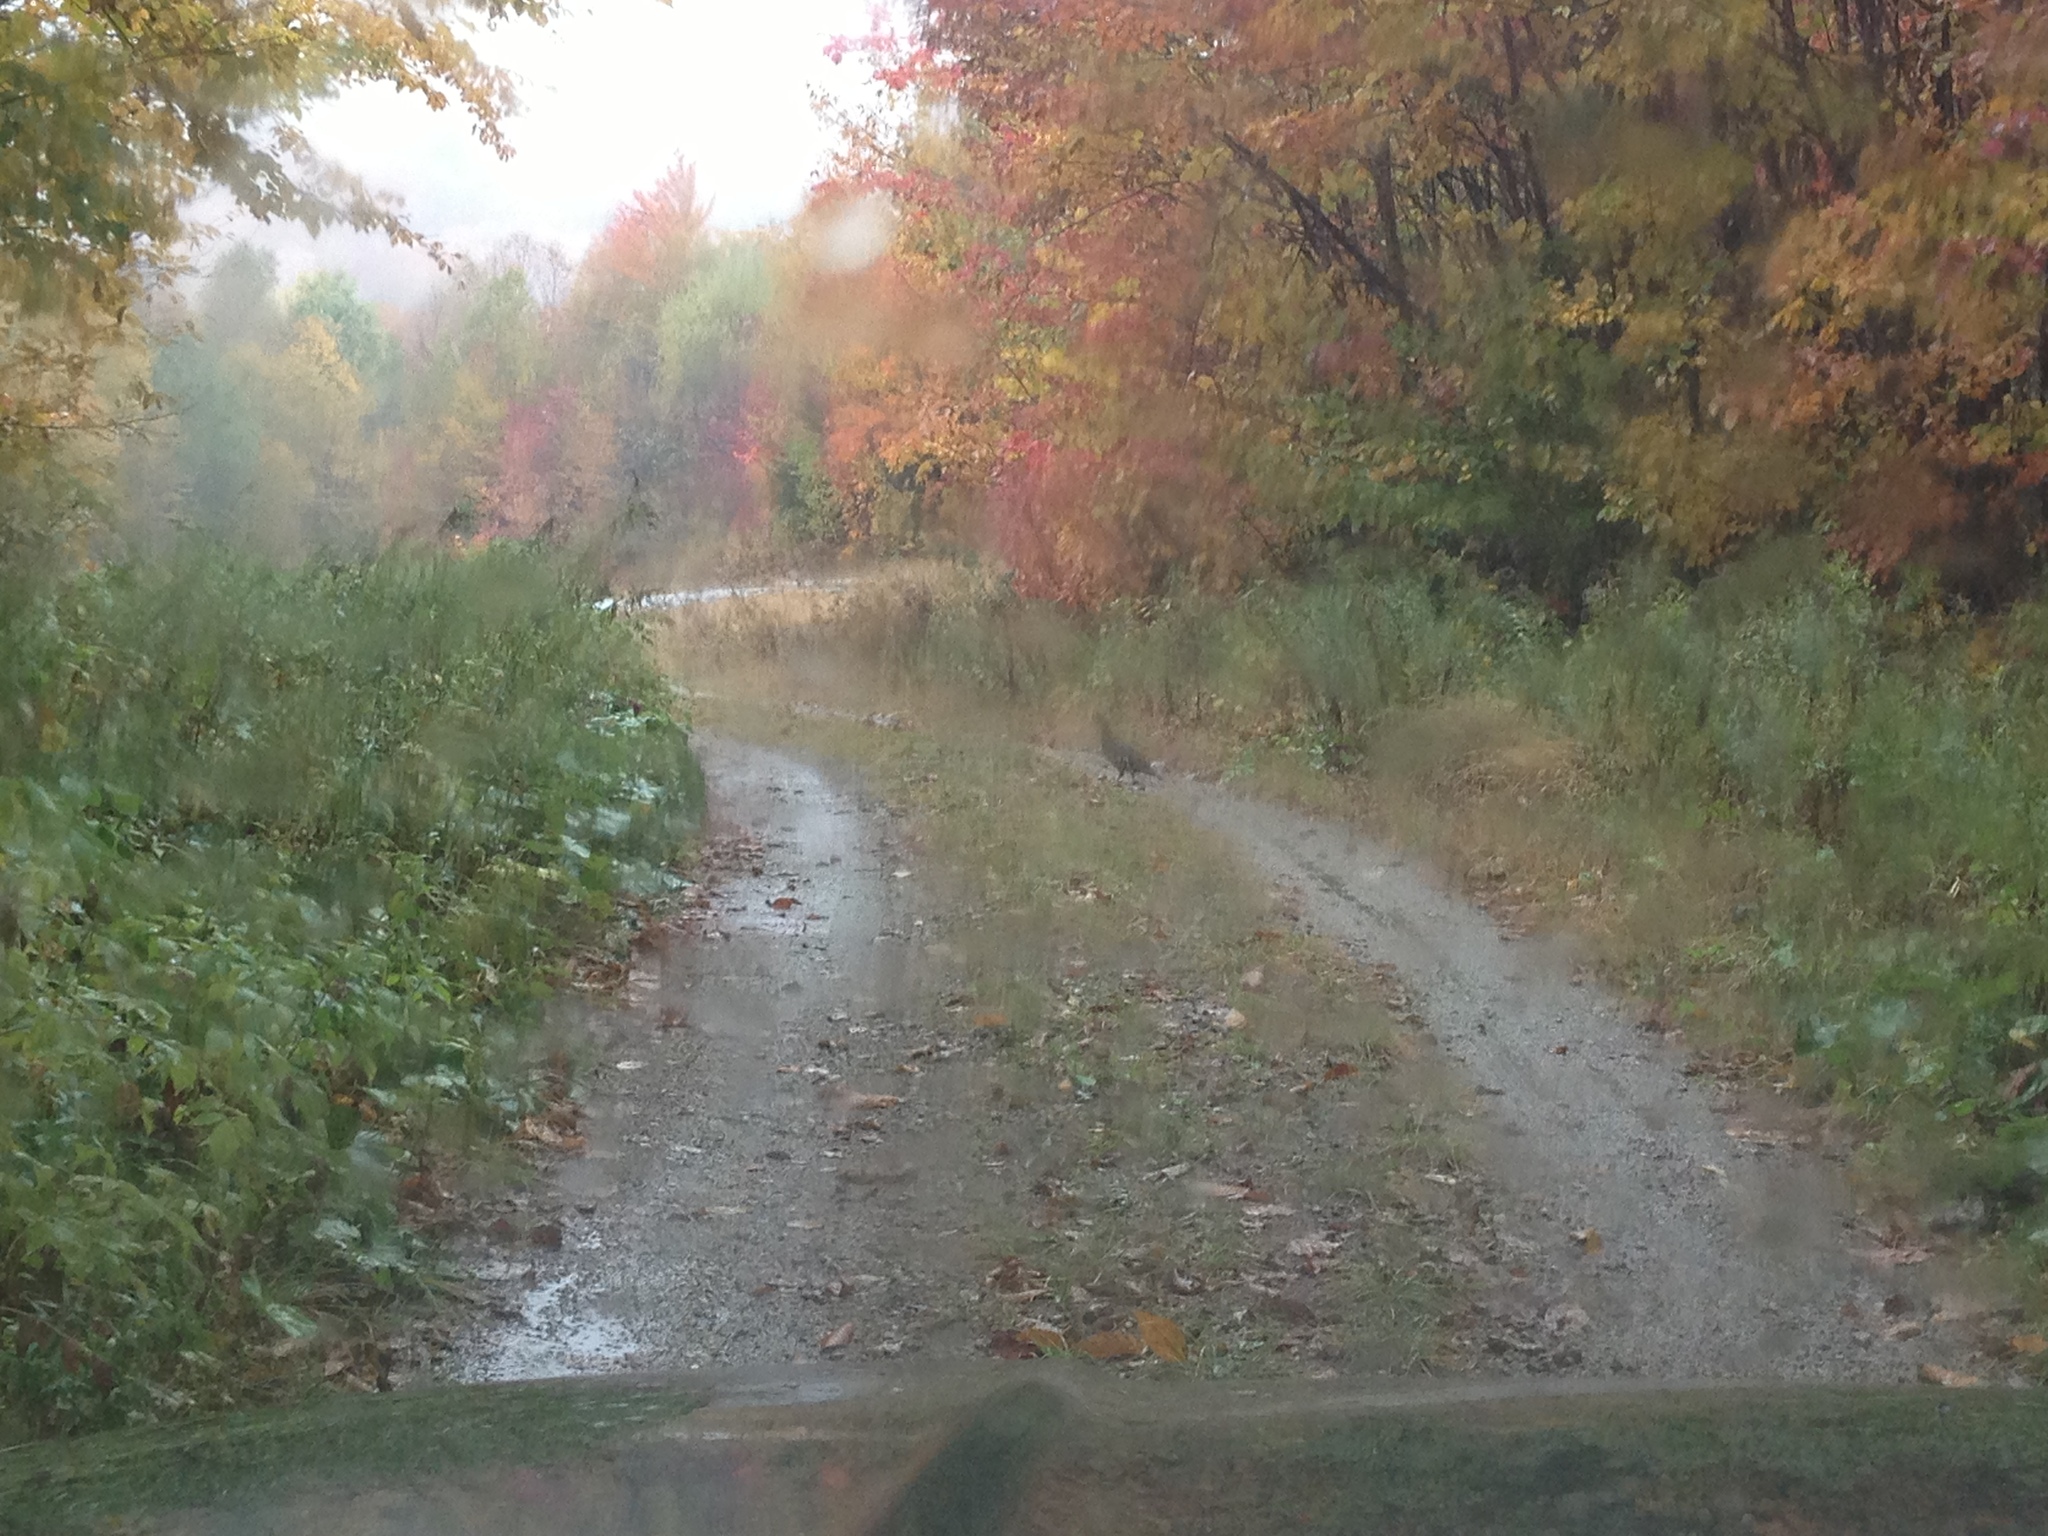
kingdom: Animalia
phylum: Chordata
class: Aves
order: Galliformes
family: Phasianidae
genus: Bonasa
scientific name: Bonasa umbellus
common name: Ruffed grouse
